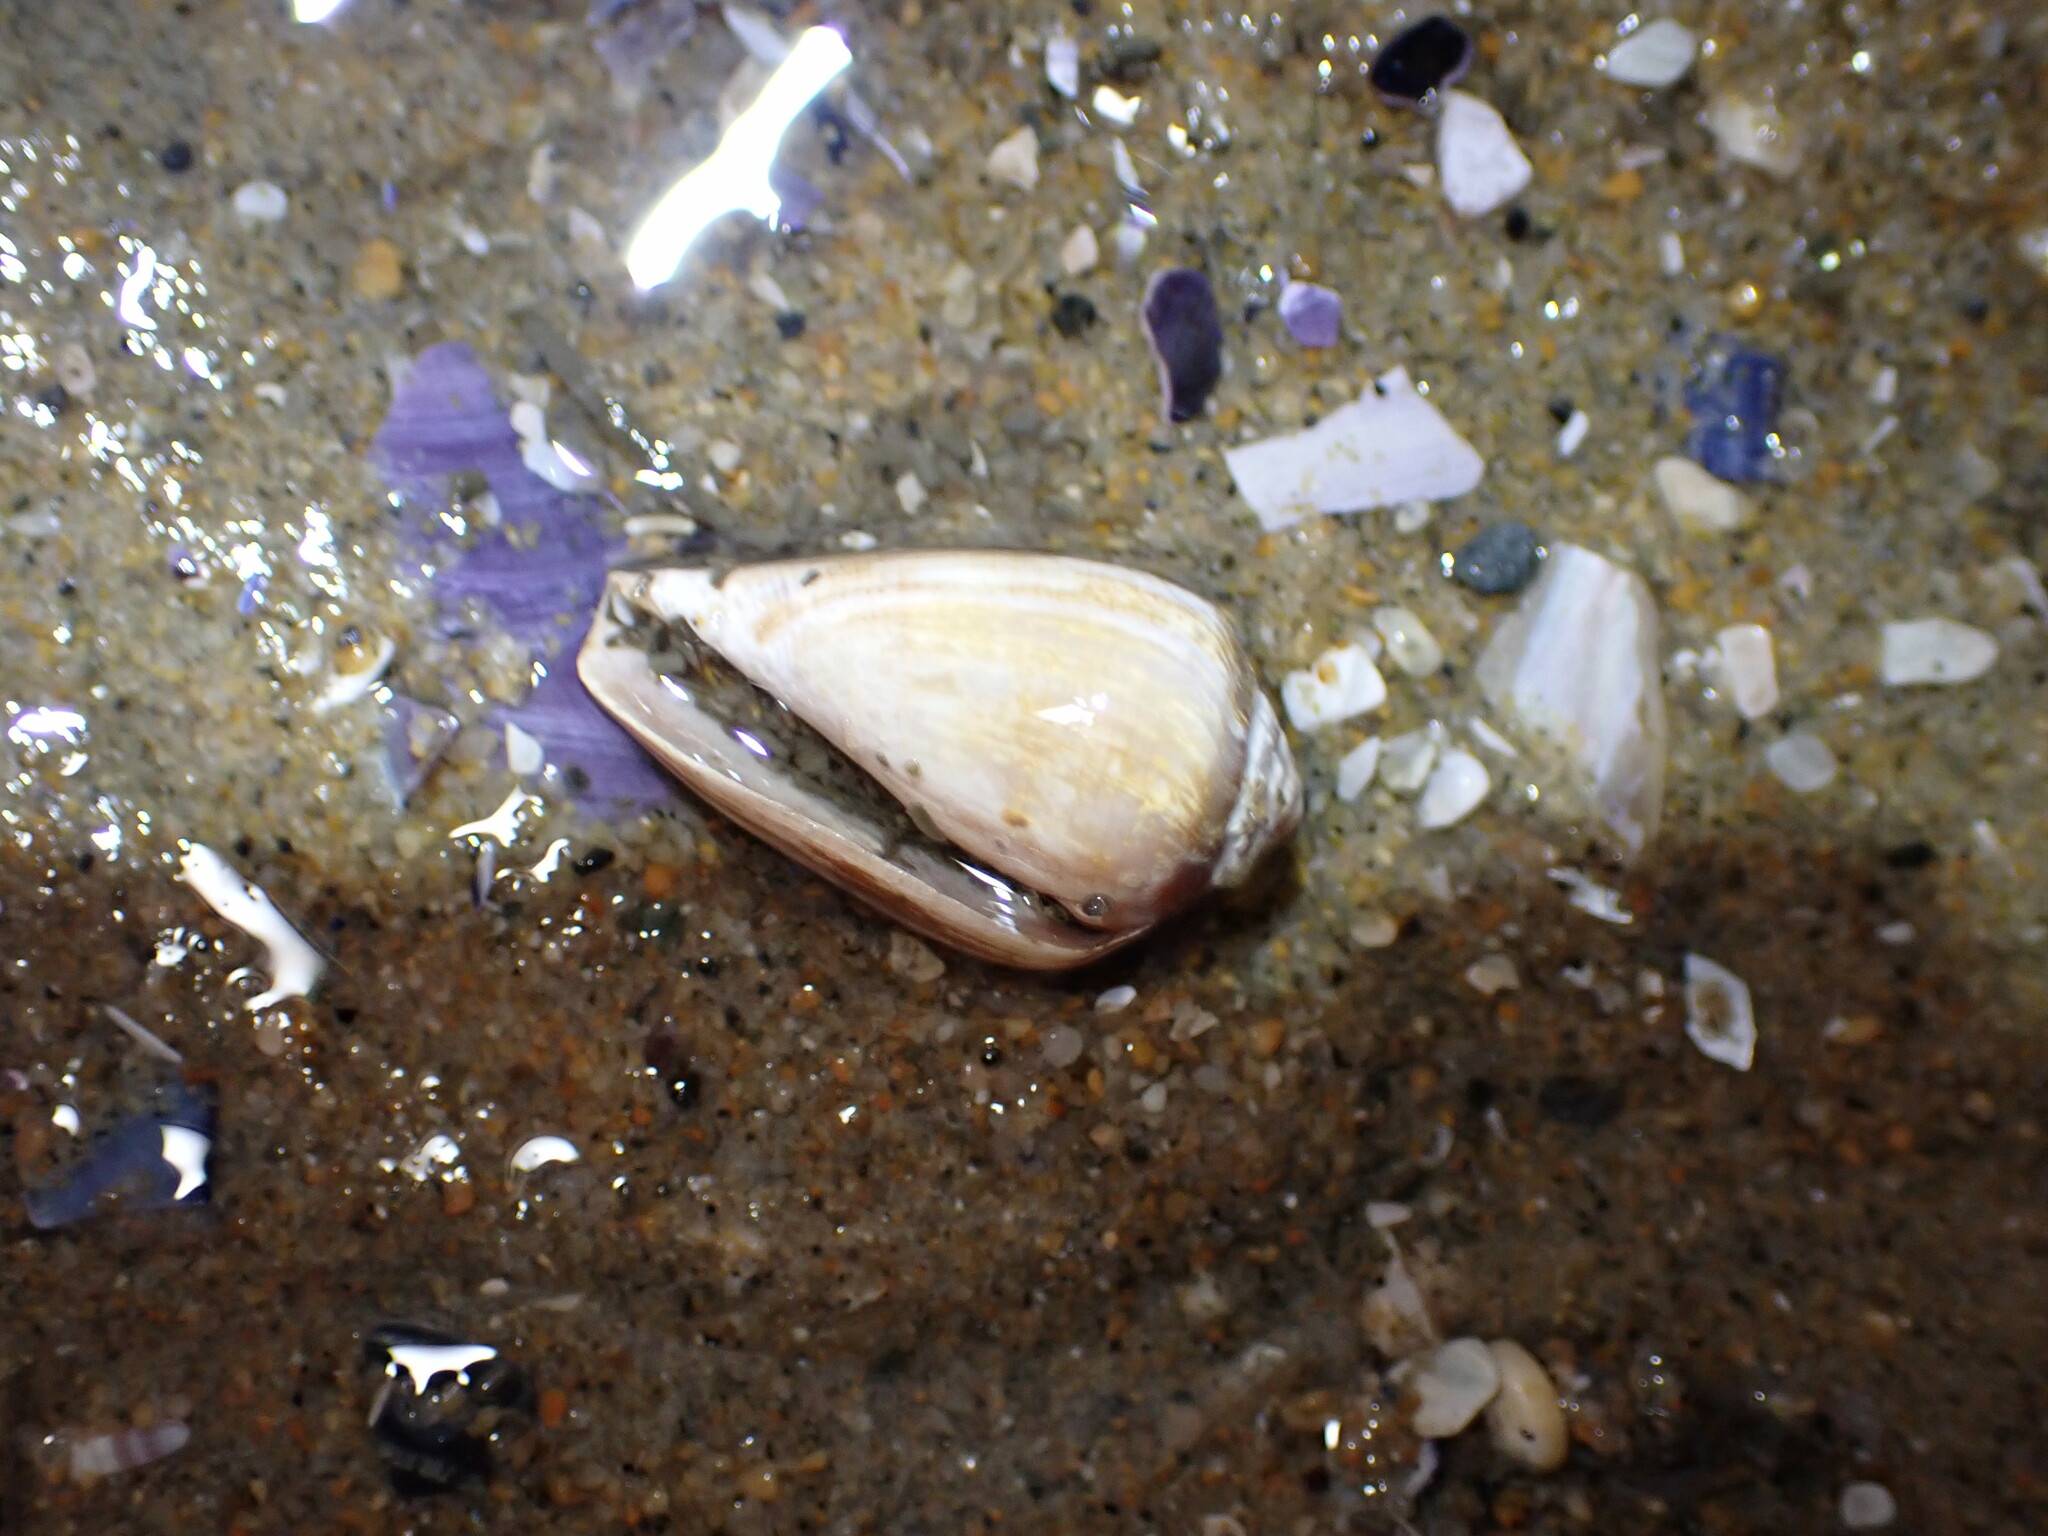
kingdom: Animalia
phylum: Mollusca
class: Gastropoda
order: Neogastropoda
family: Conidae
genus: Californiconus
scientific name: Californiconus californicus
